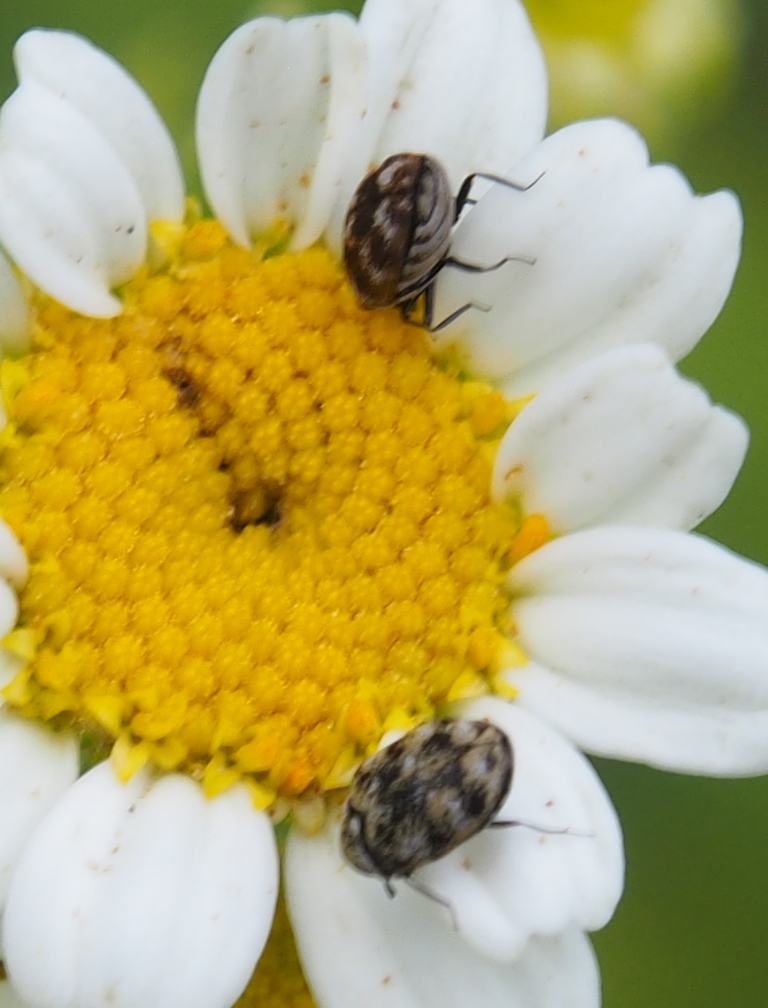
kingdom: Animalia
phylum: Arthropoda
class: Insecta
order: Coleoptera
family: Dermestidae
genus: Anthrenus
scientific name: Anthrenus verbasci
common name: Varied carpet beetle
